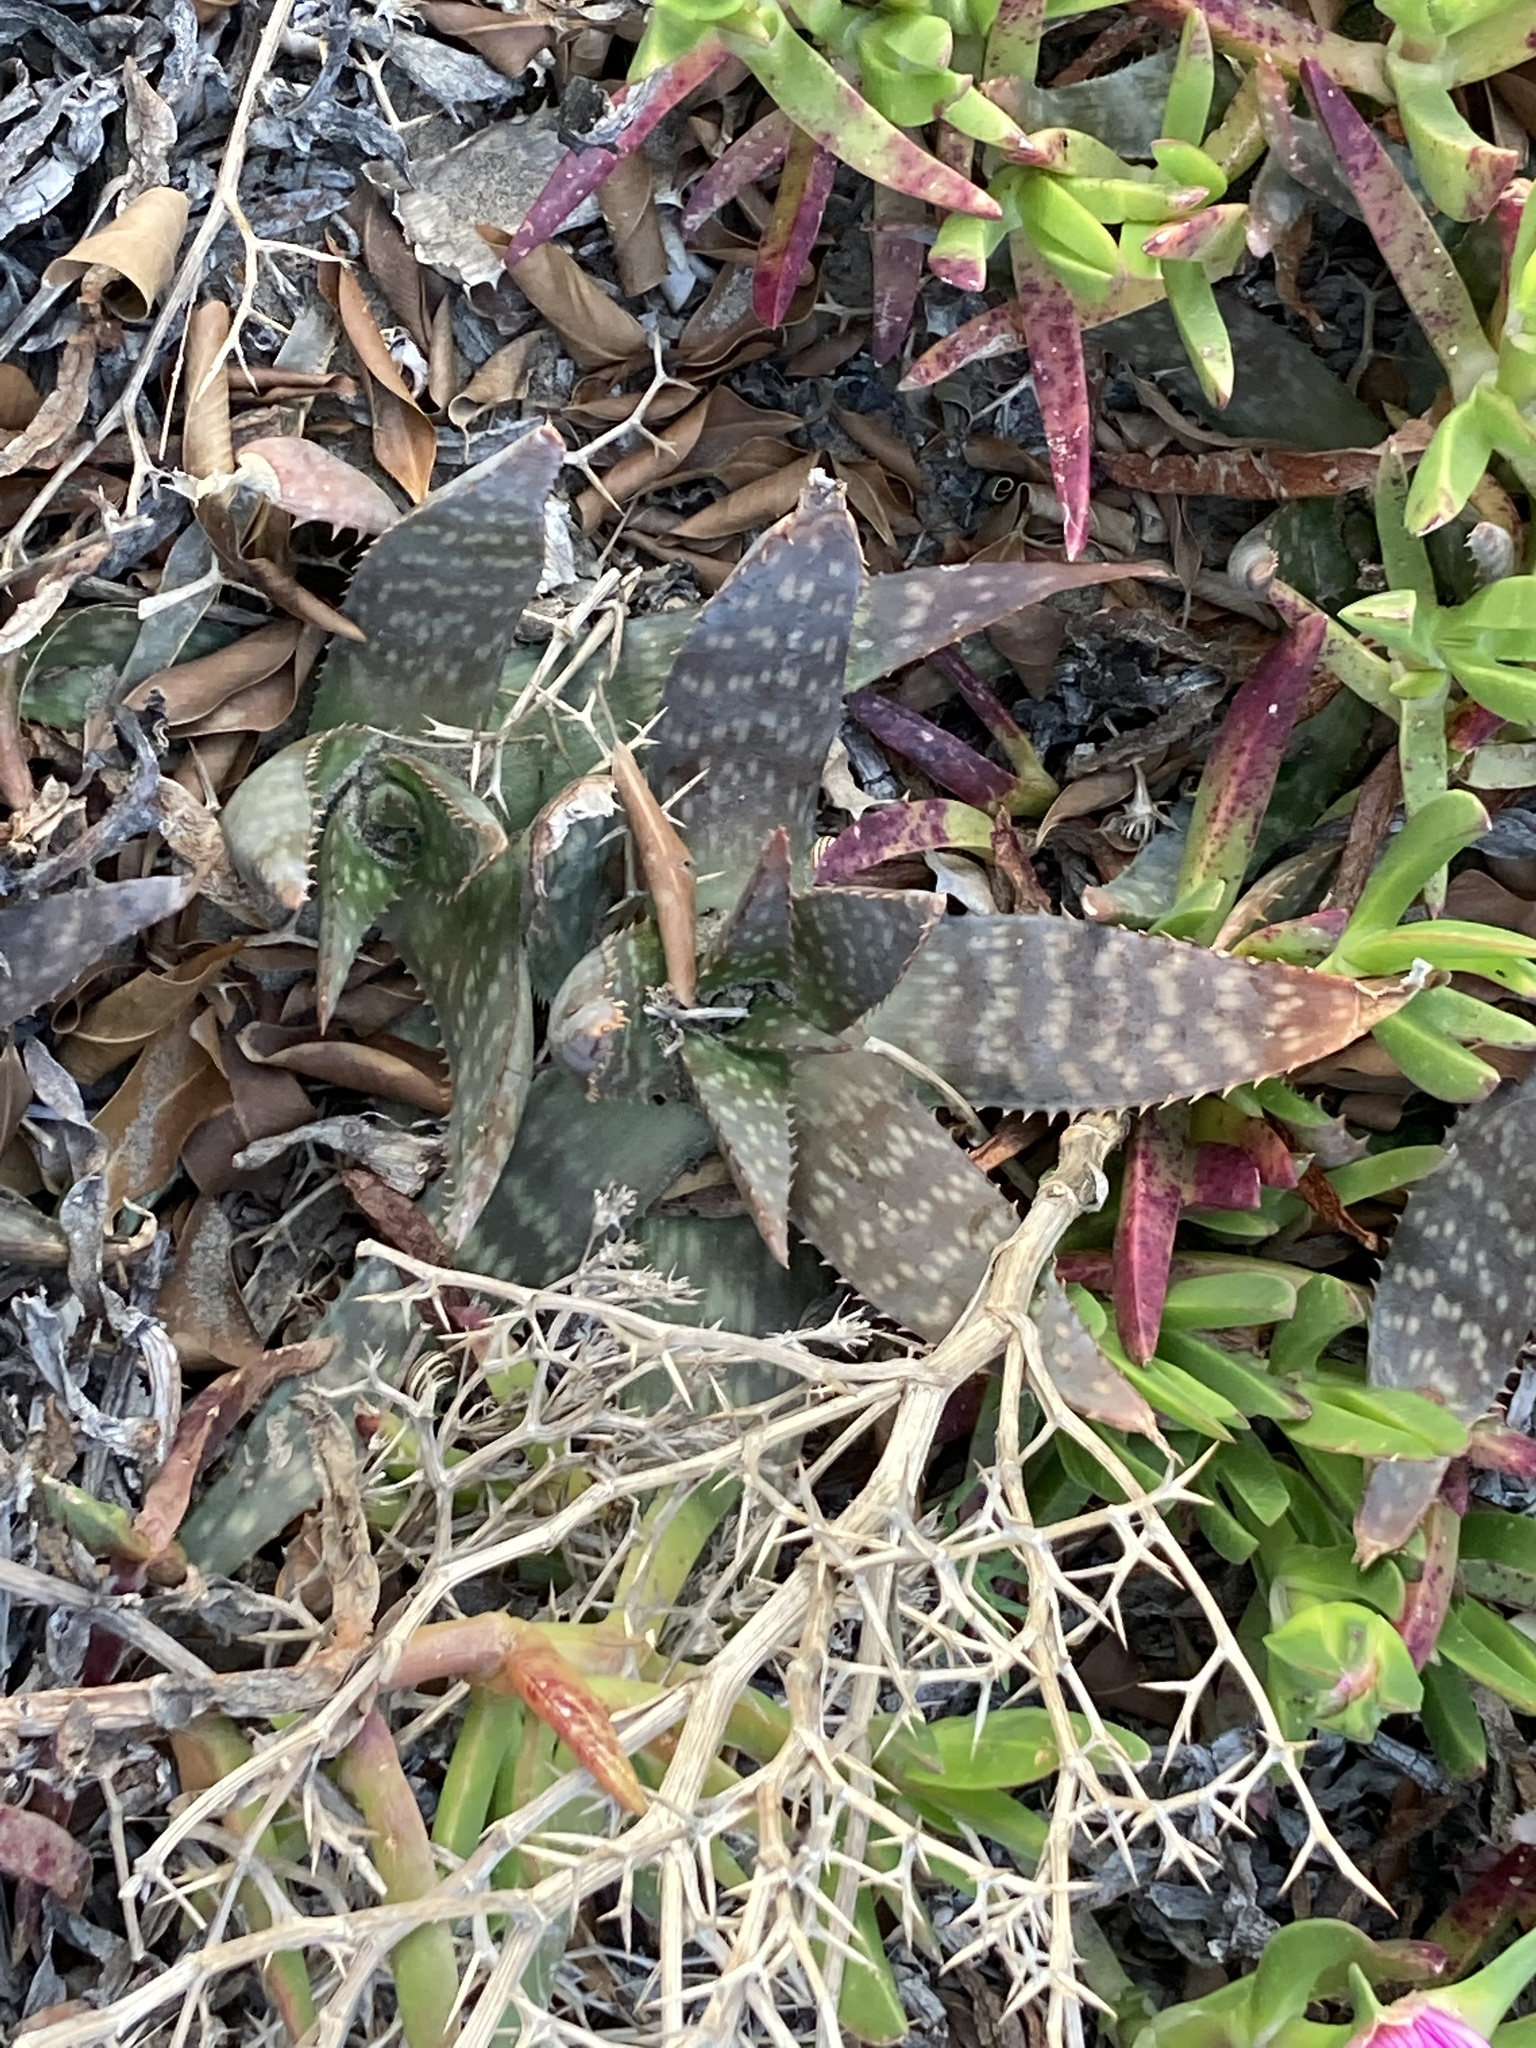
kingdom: Plantae
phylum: Tracheophyta
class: Liliopsida
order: Asparagales
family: Asphodelaceae
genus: Aloe
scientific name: Aloe maculata
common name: Broadleaf aloe
